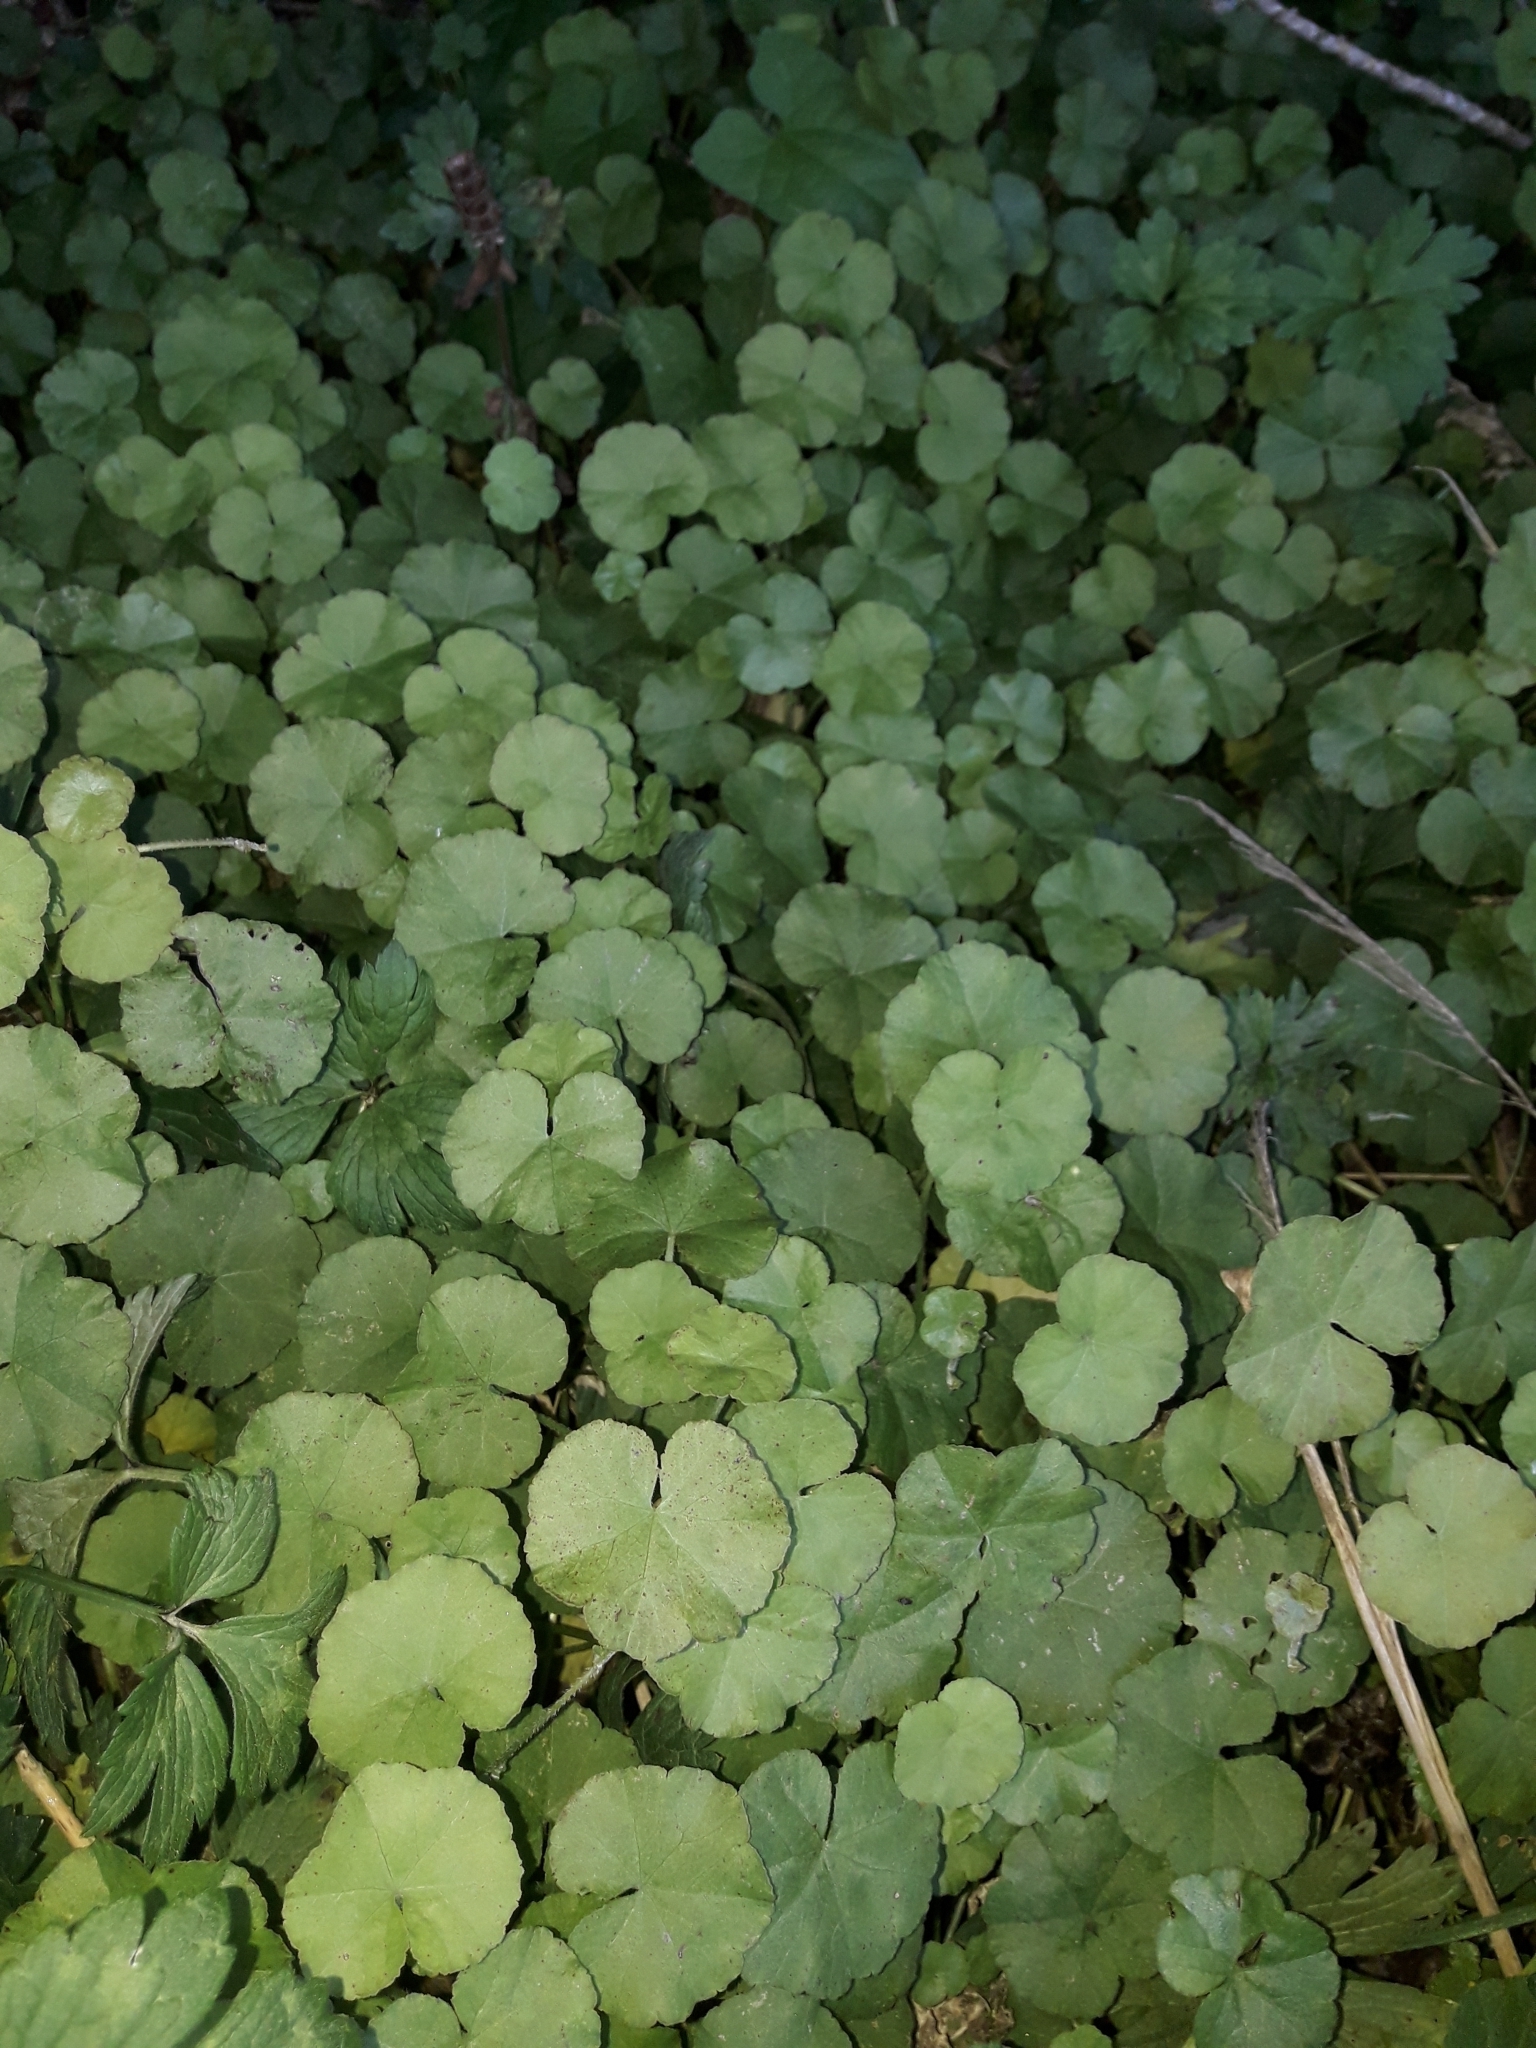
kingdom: Plantae
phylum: Tracheophyta
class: Magnoliopsida
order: Apiales
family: Araliaceae
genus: Hydrocotyle
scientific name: Hydrocotyle novae-zeelandiae
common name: New zealand pennywort
